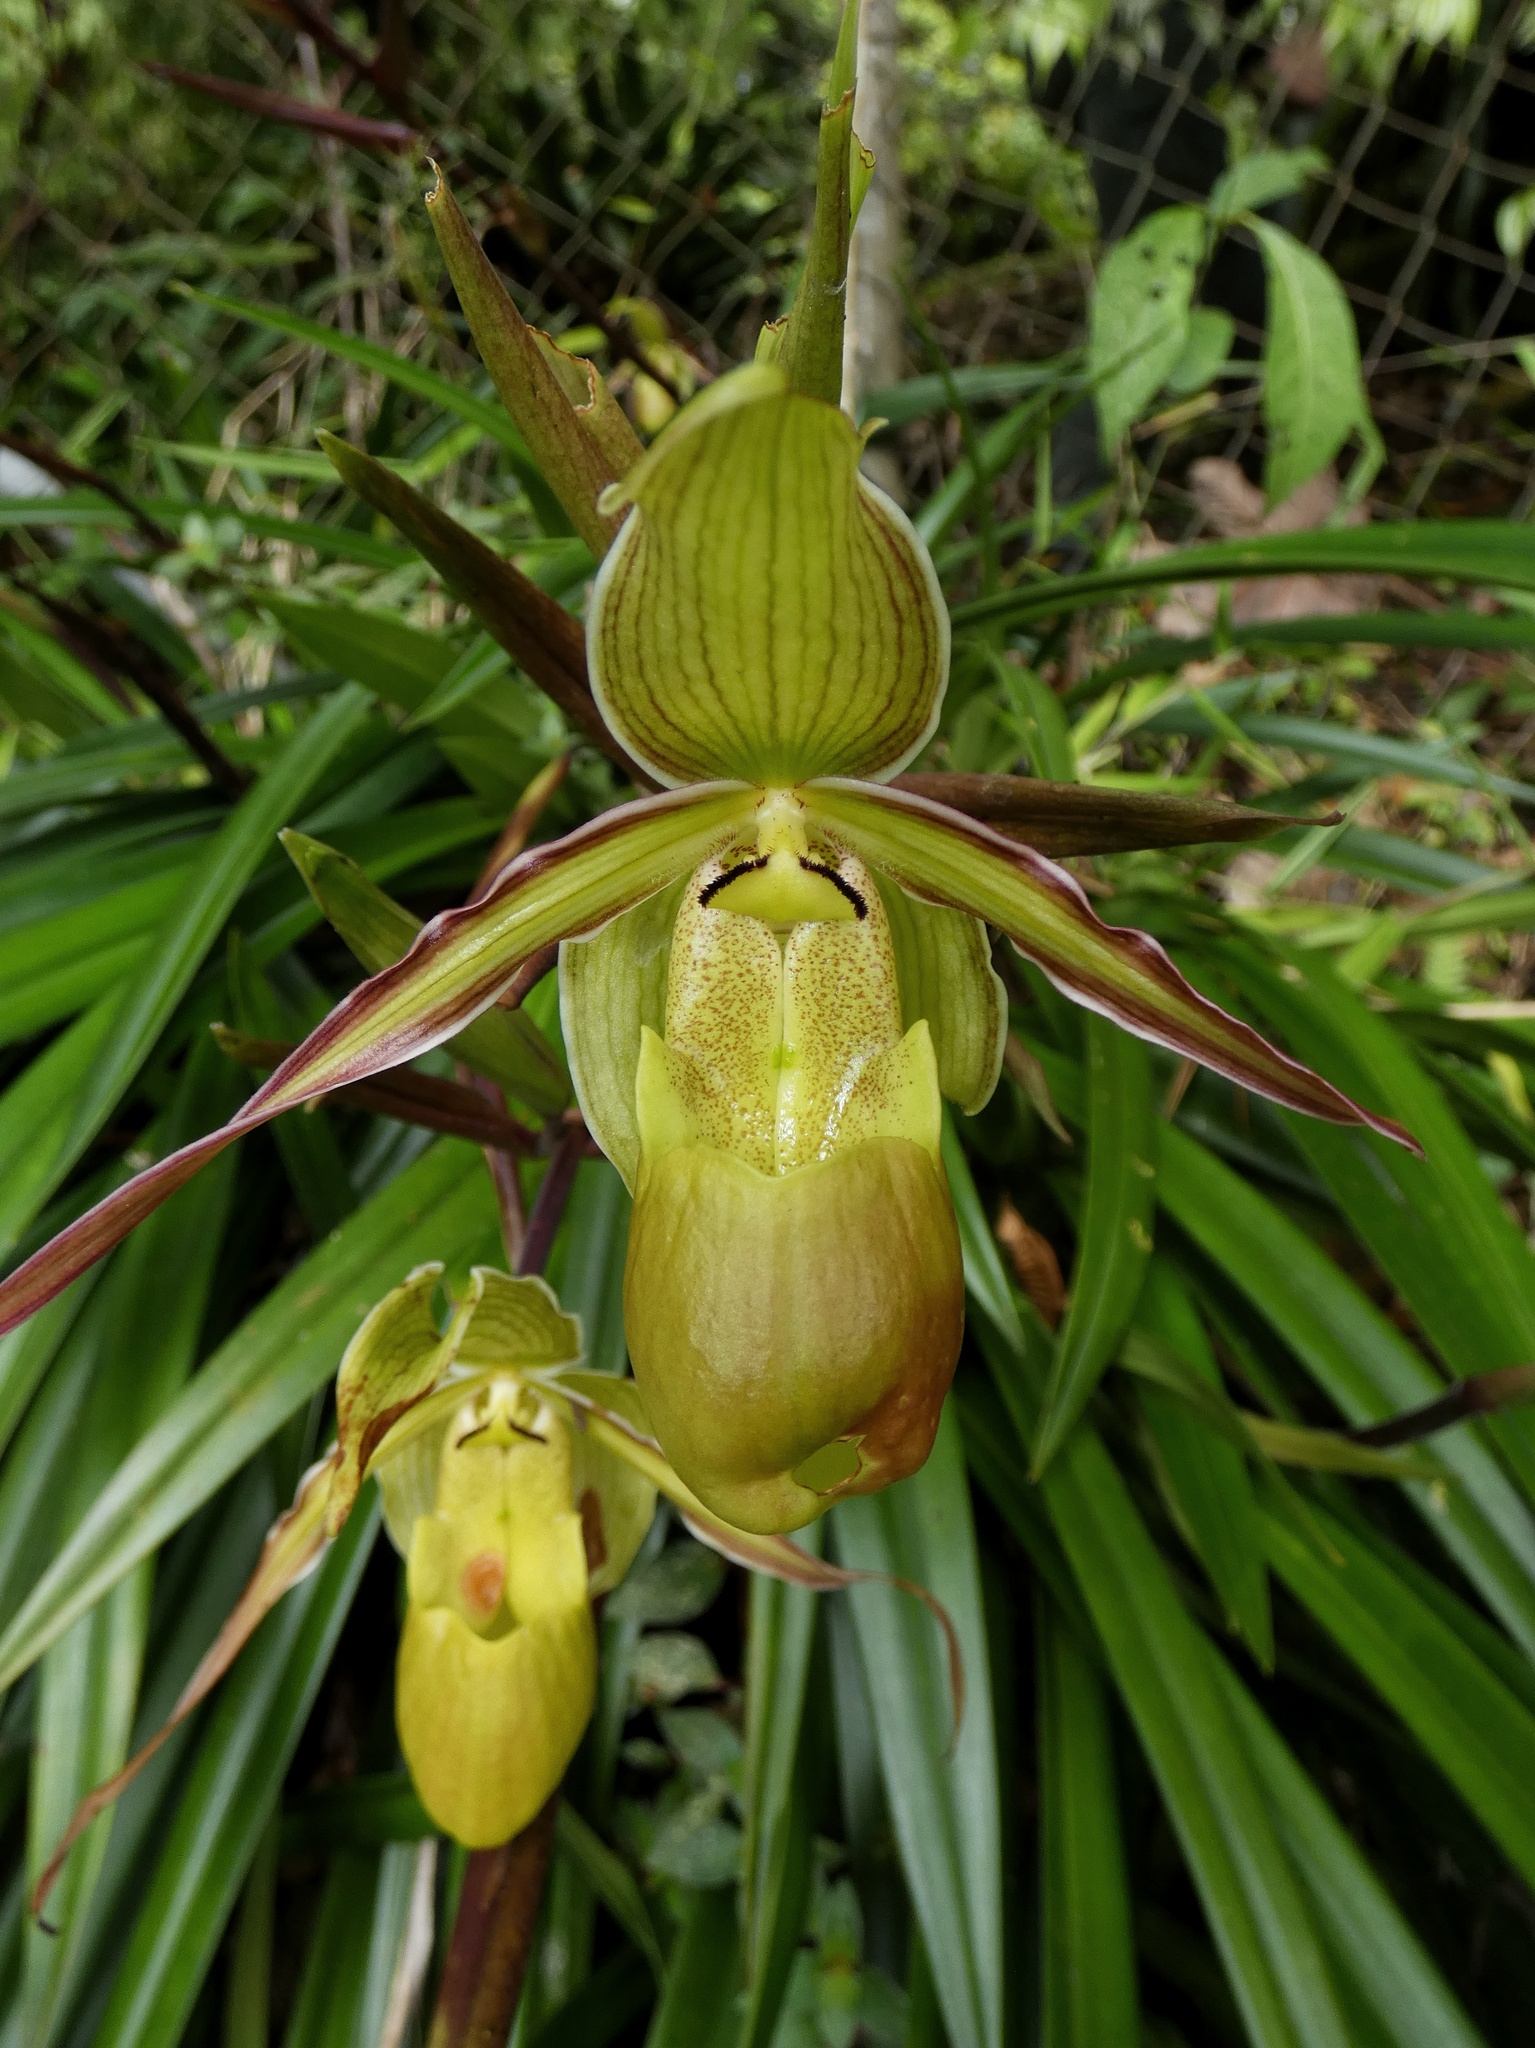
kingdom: Plantae
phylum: Tracheophyta
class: Liliopsida
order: Asparagales
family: Orchidaceae
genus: Phragmipedium
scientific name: Phragmipedium longifolium
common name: Long-leaf phragmipedium
